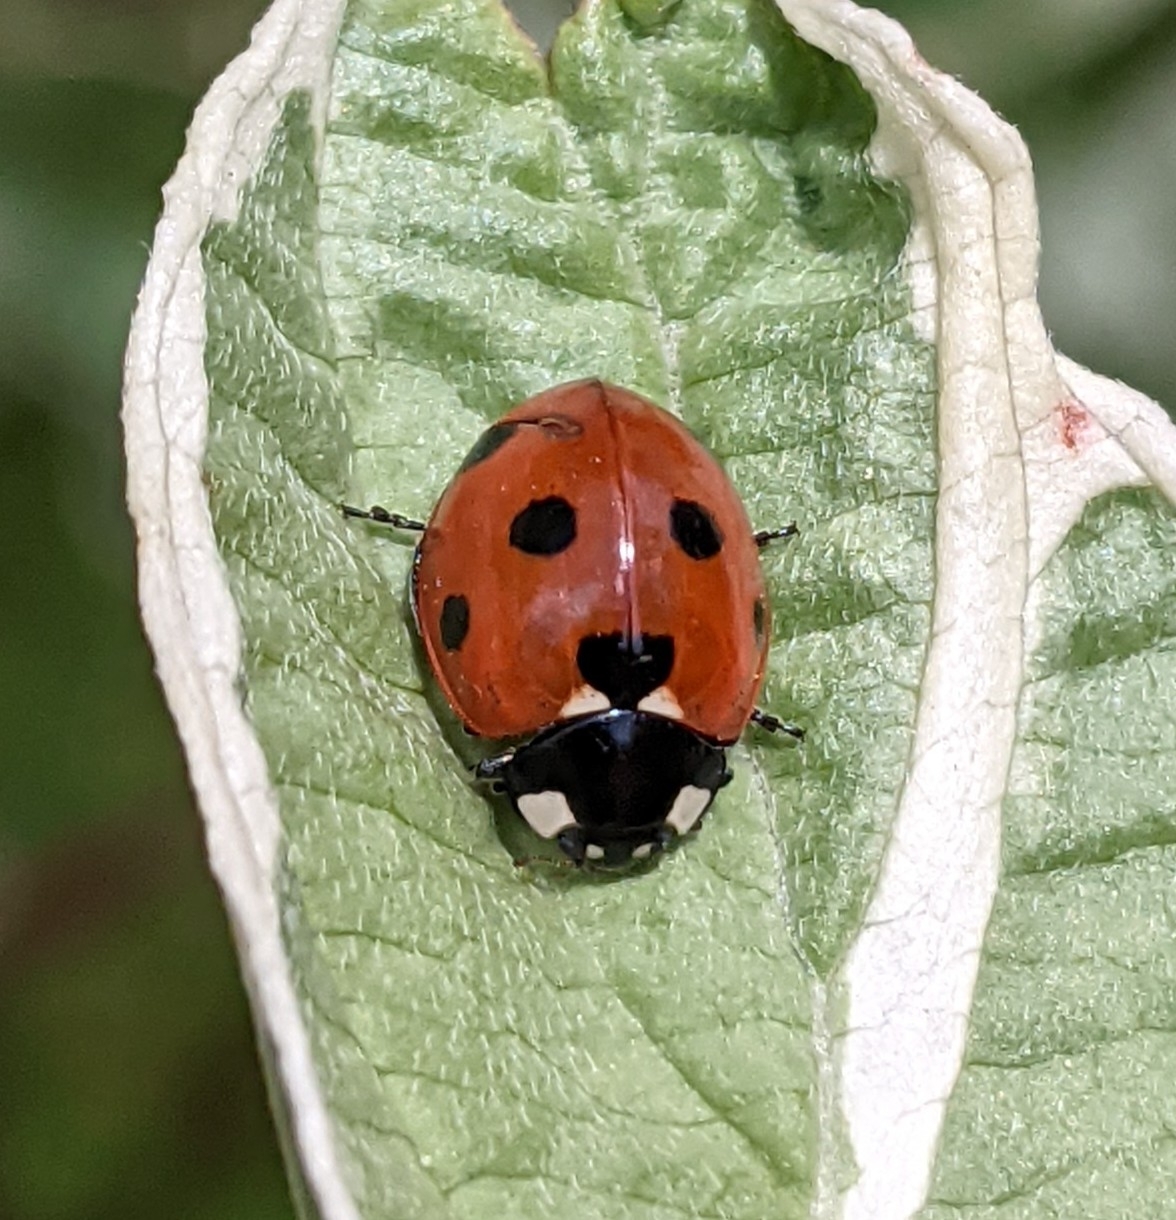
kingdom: Animalia
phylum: Arthropoda
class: Insecta
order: Coleoptera
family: Coccinellidae
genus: Coccinella
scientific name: Coccinella septempunctata
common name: Sevenspotted lady beetle
